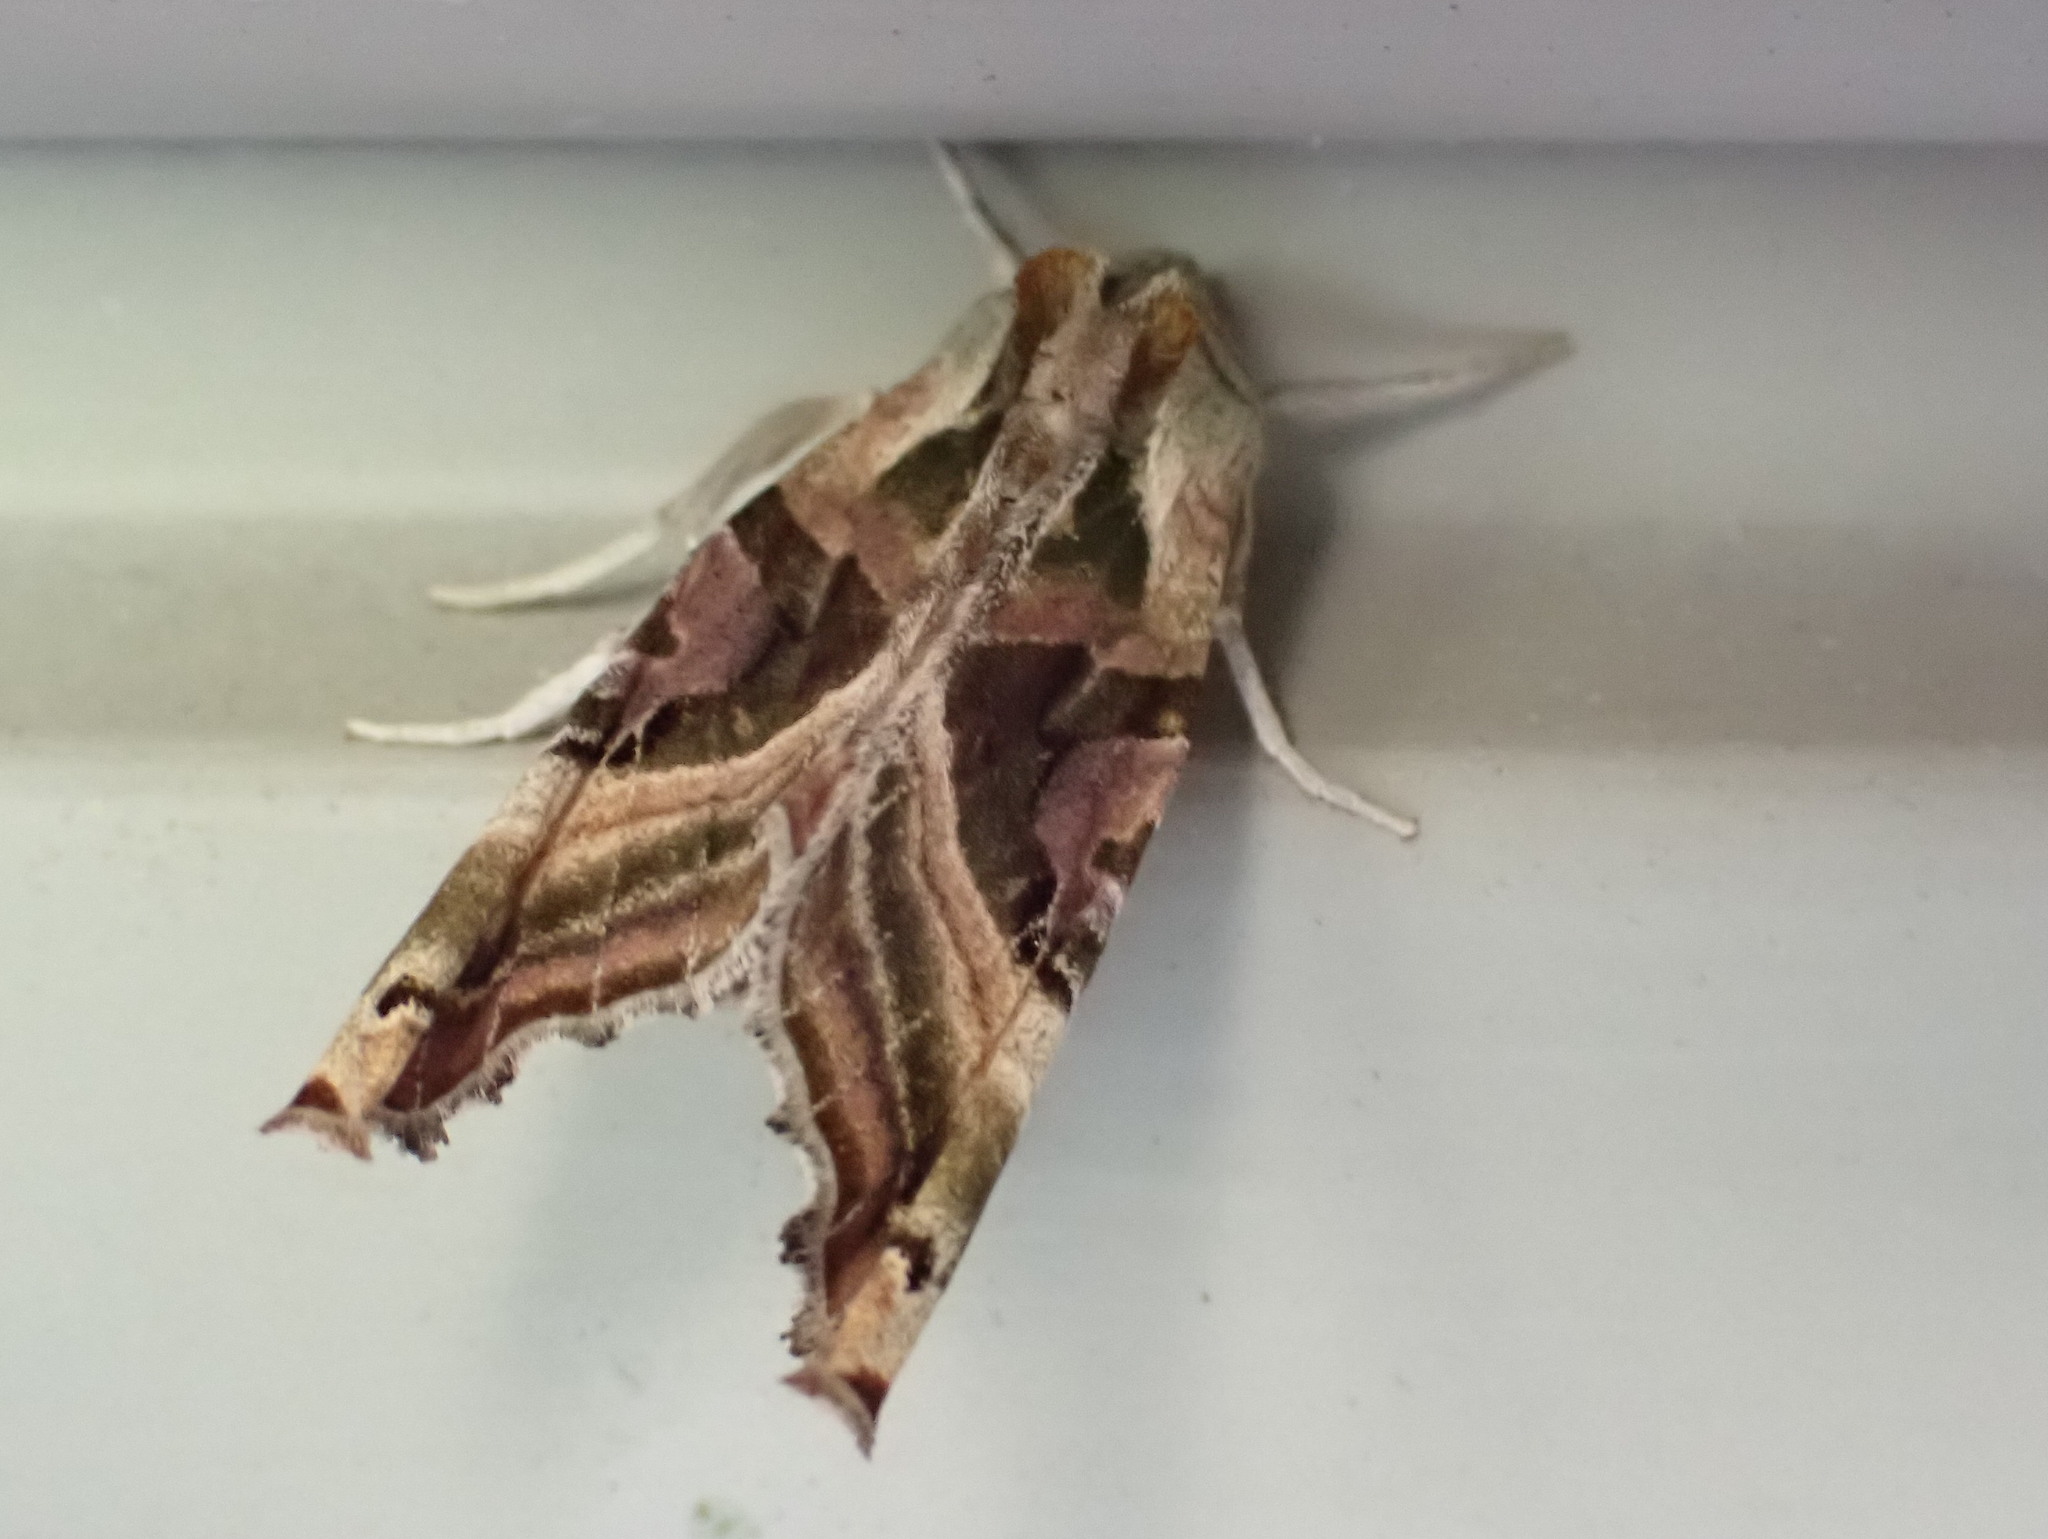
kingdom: Animalia
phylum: Arthropoda
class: Insecta
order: Lepidoptera
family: Noctuidae
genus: Phlogophora
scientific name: Phlogophora iris
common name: Olive angle shades
